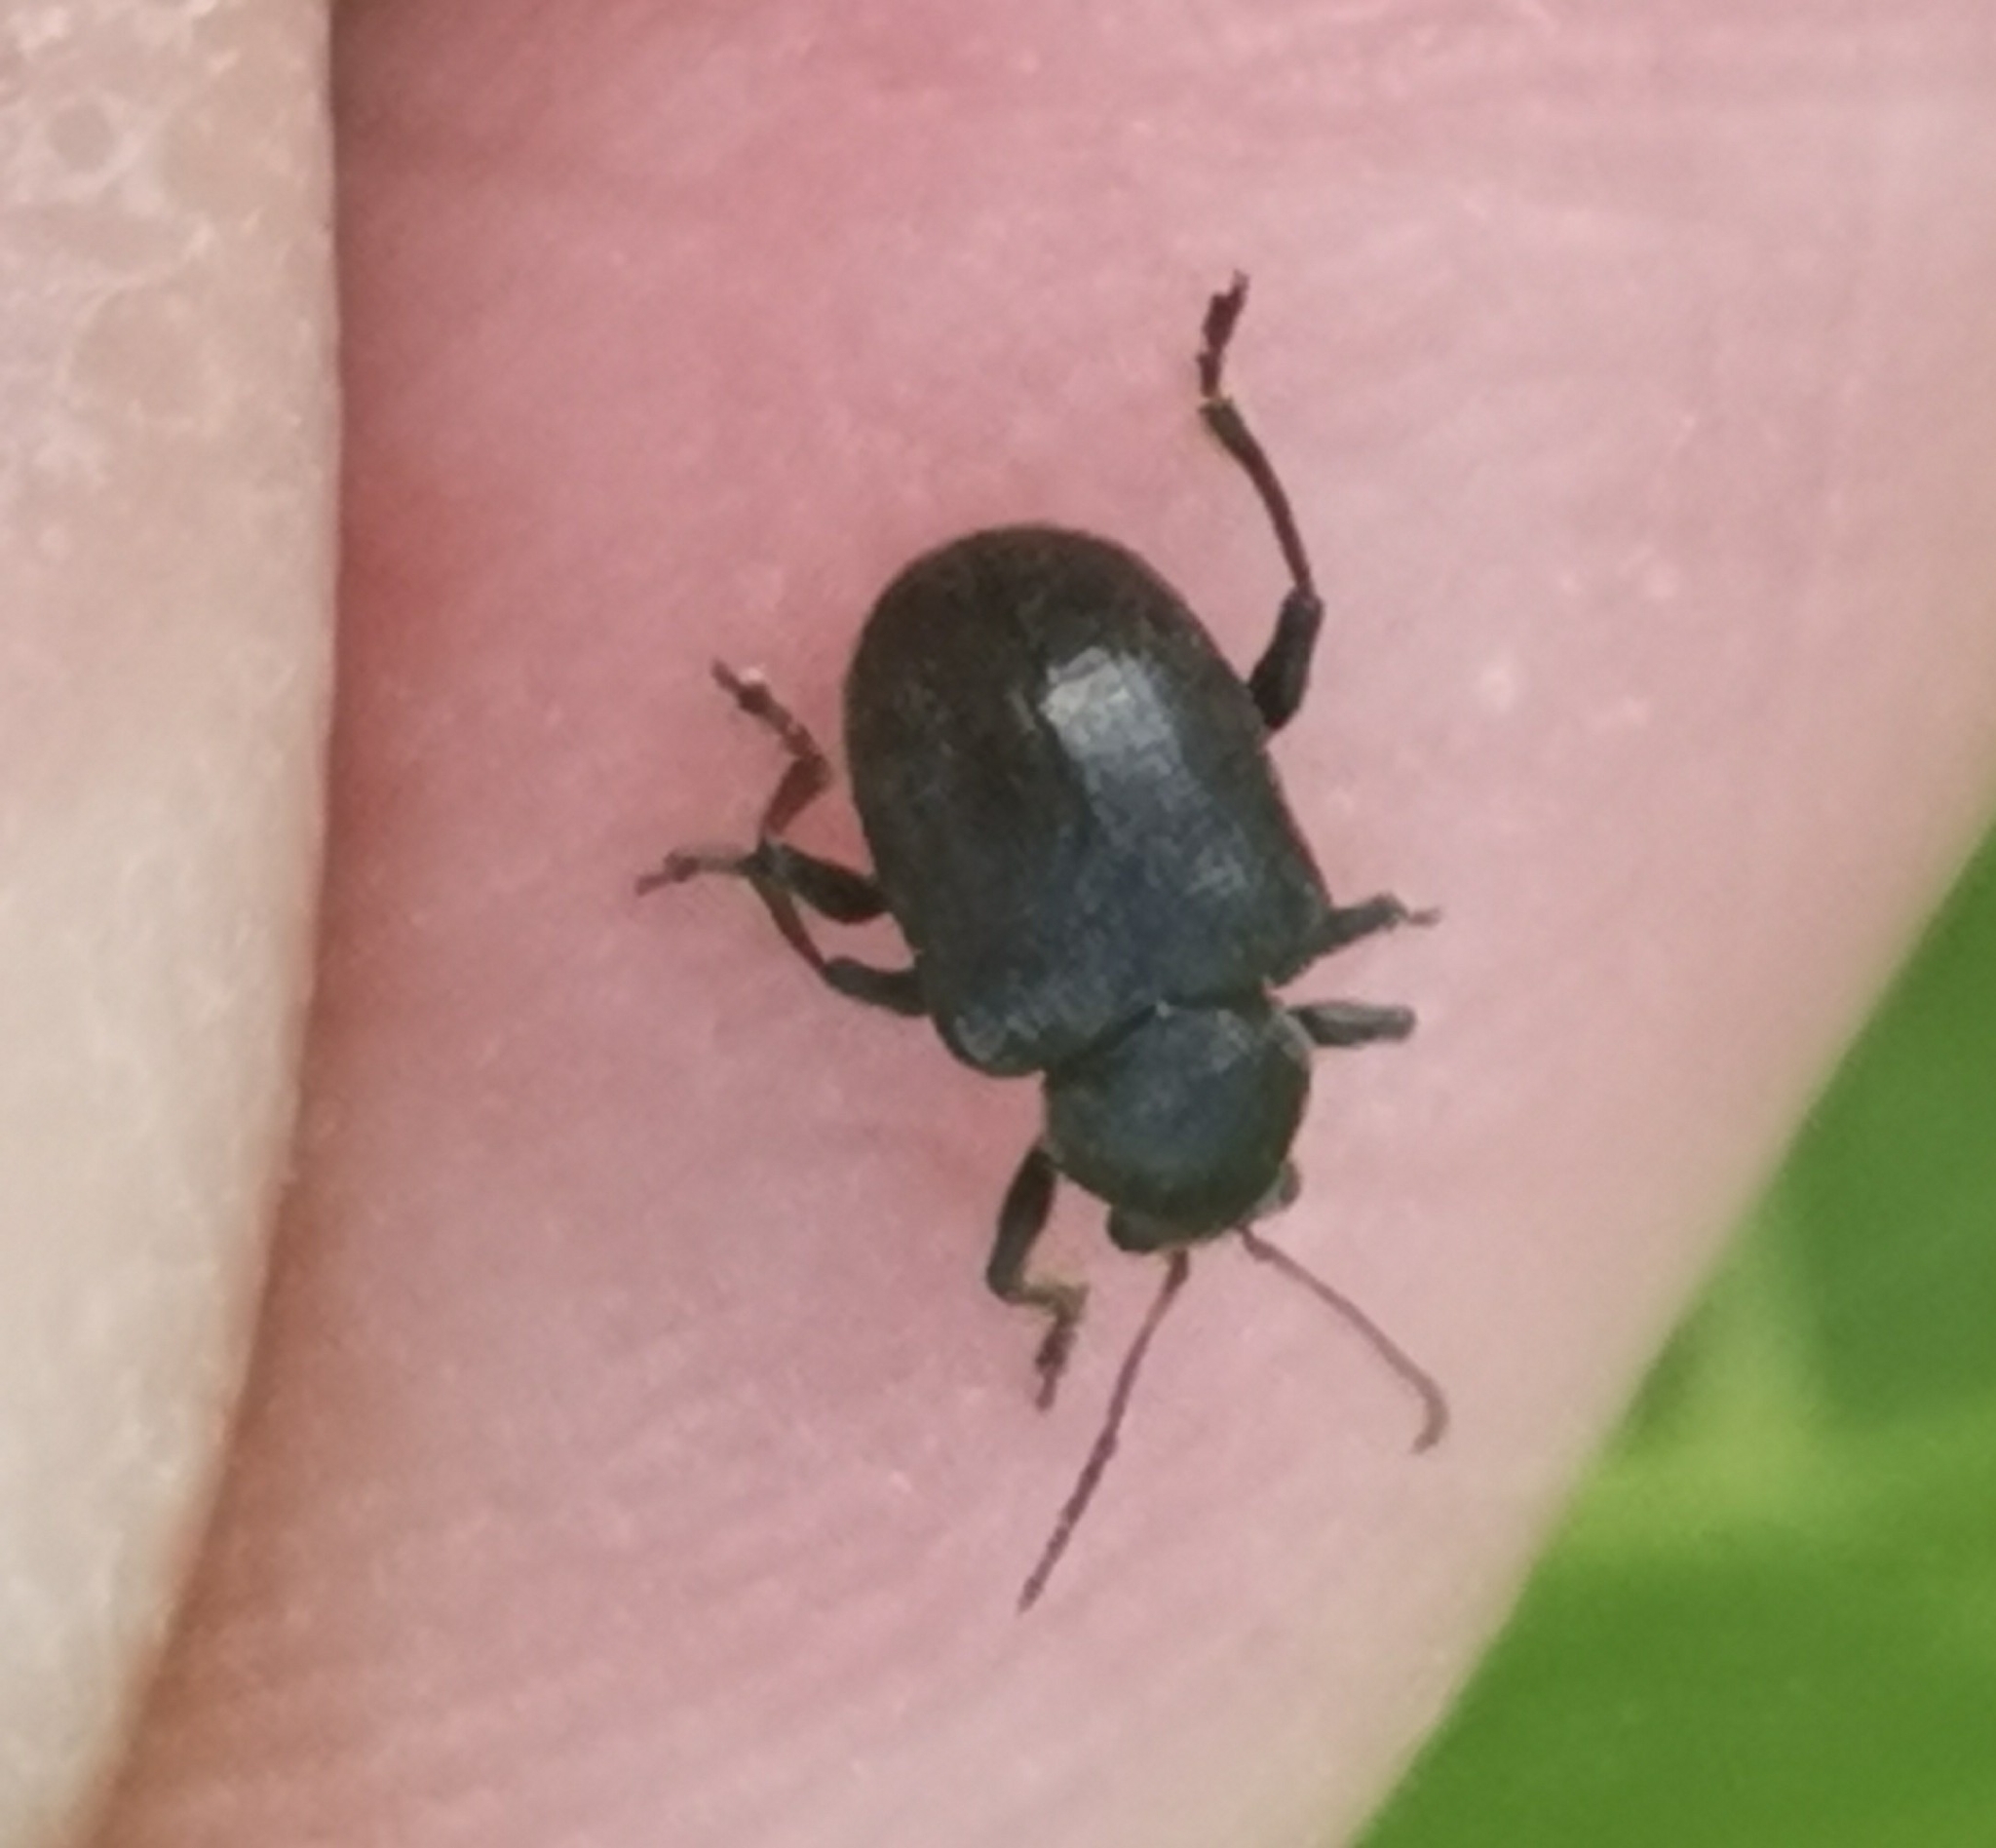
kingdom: Animalia
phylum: Arthropoda
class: Insecta
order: Coleoptera
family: Chrysomelidae
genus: Bromius
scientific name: Bromius obscurus
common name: Western grape rootworm
